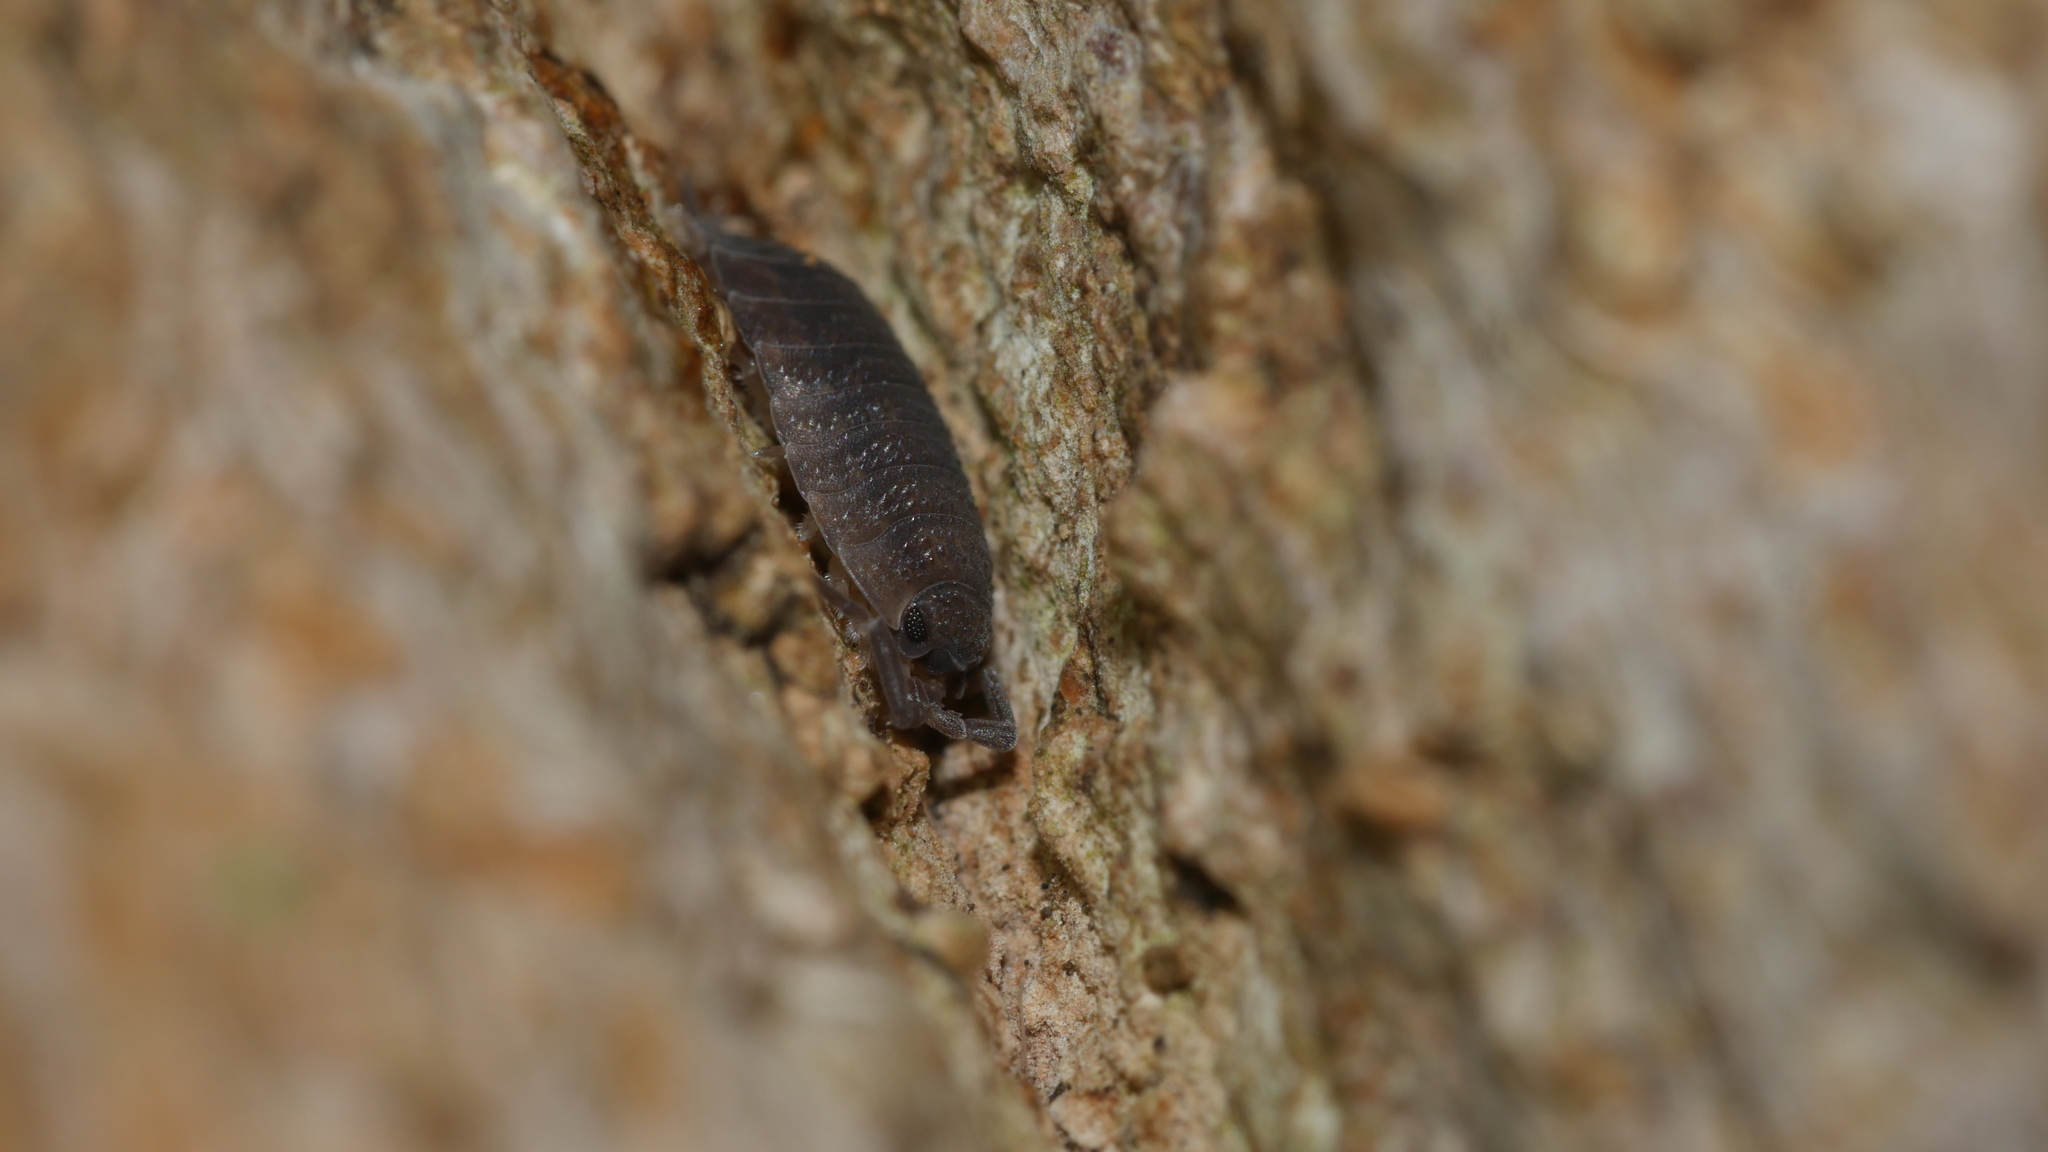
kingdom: Animalia
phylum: Arthropoda
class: Malacostraca
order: Isopoda
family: Porcellionidae
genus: Porcellio
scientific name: Porcellio scaber
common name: Common rough woodlouse
